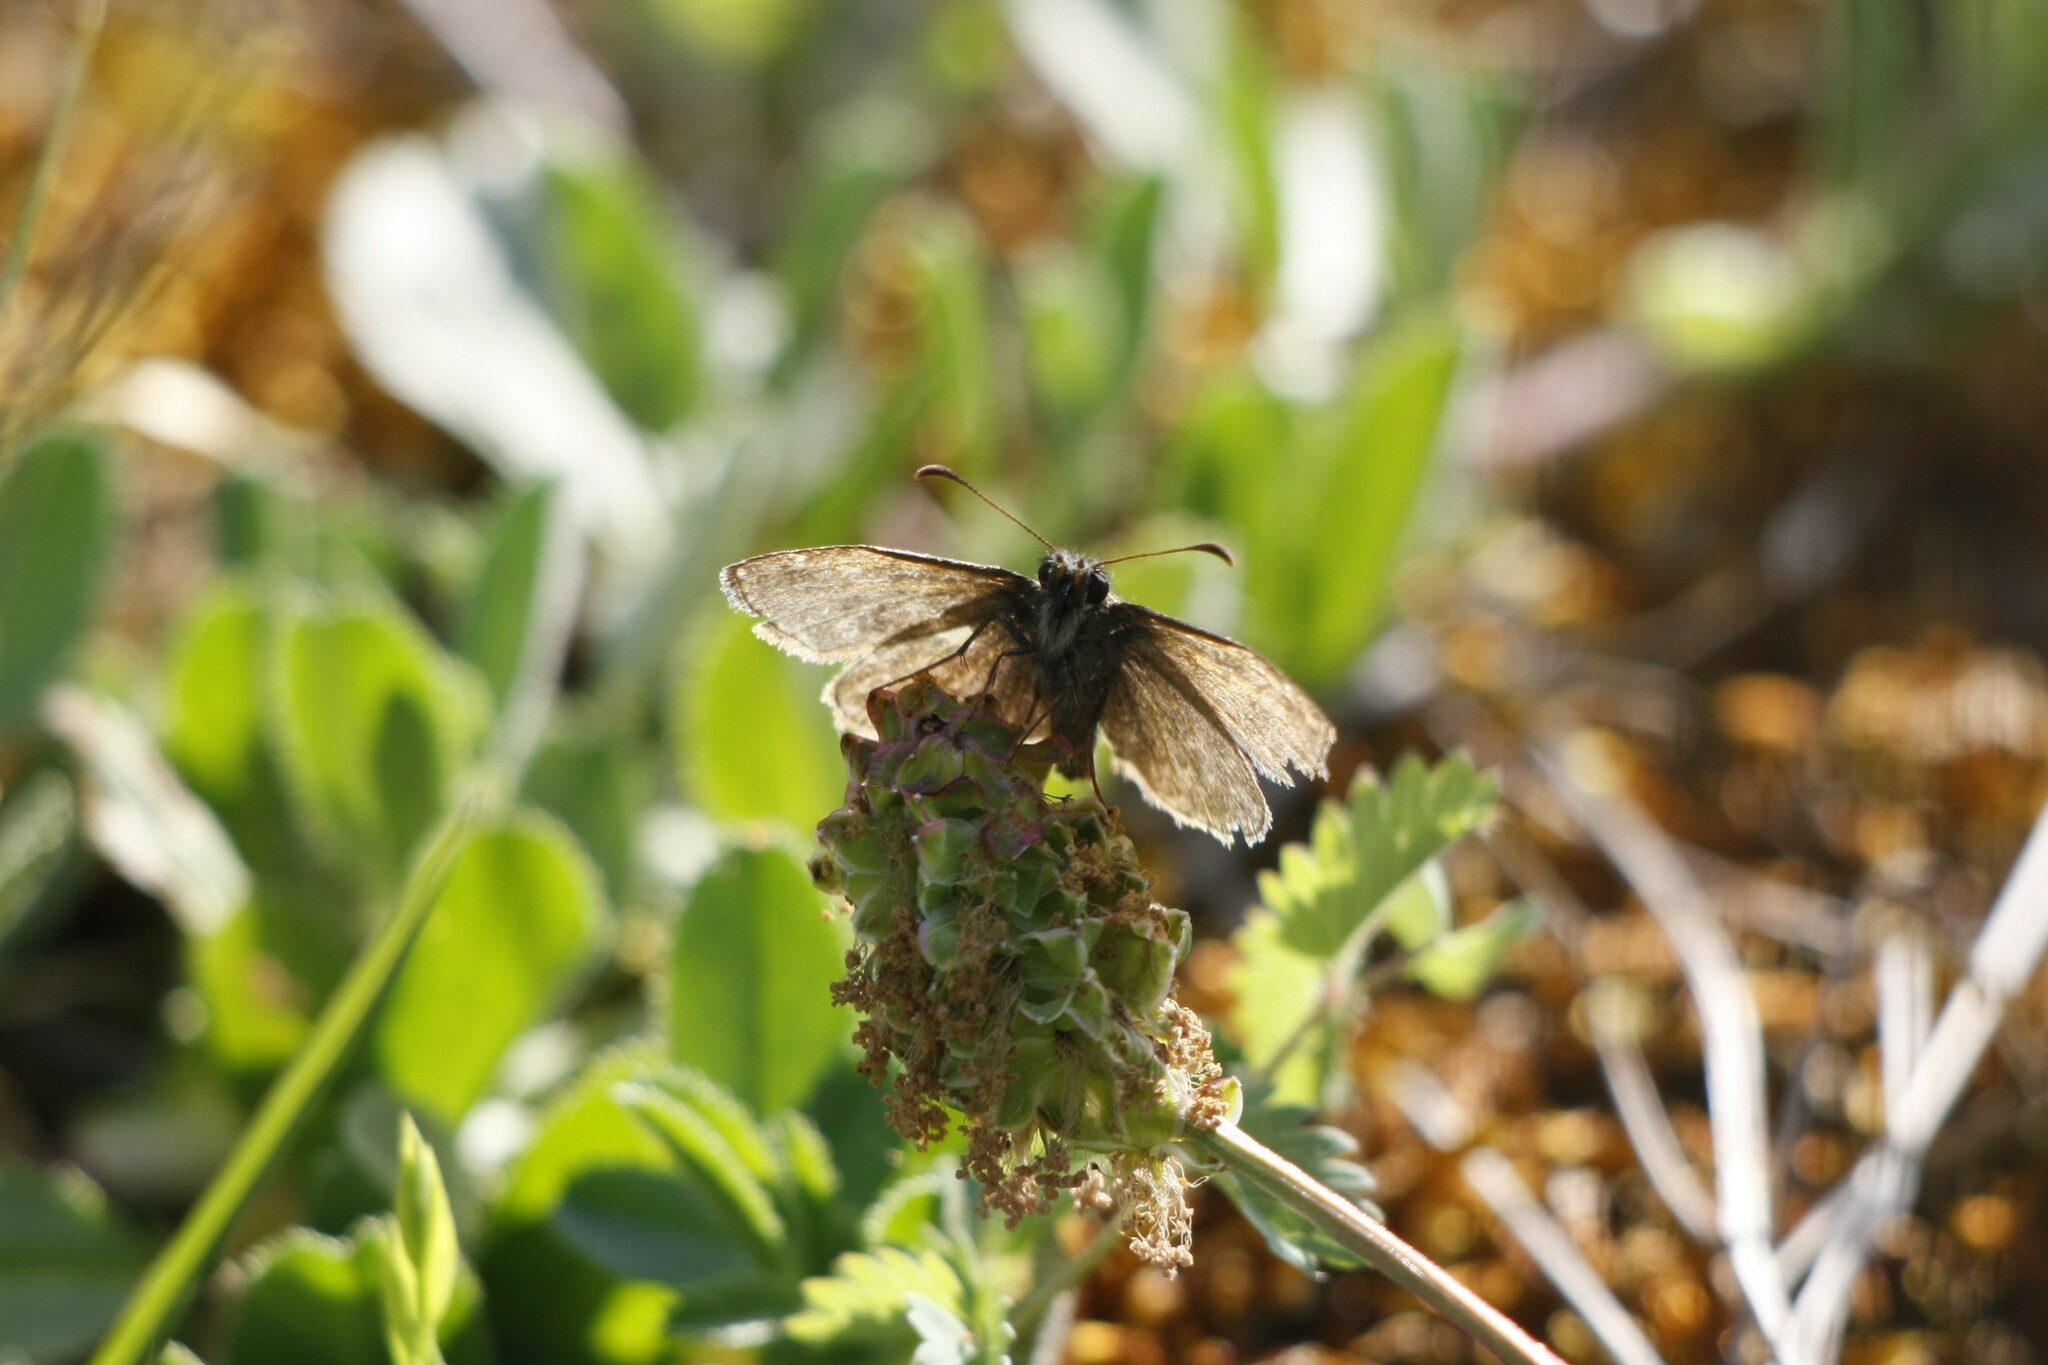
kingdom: Animalia
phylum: Arthropoda
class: Insecta
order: Lepidoptera
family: Hesperiidae
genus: Erynnis
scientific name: Erynnis tages
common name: Dingy skipper
